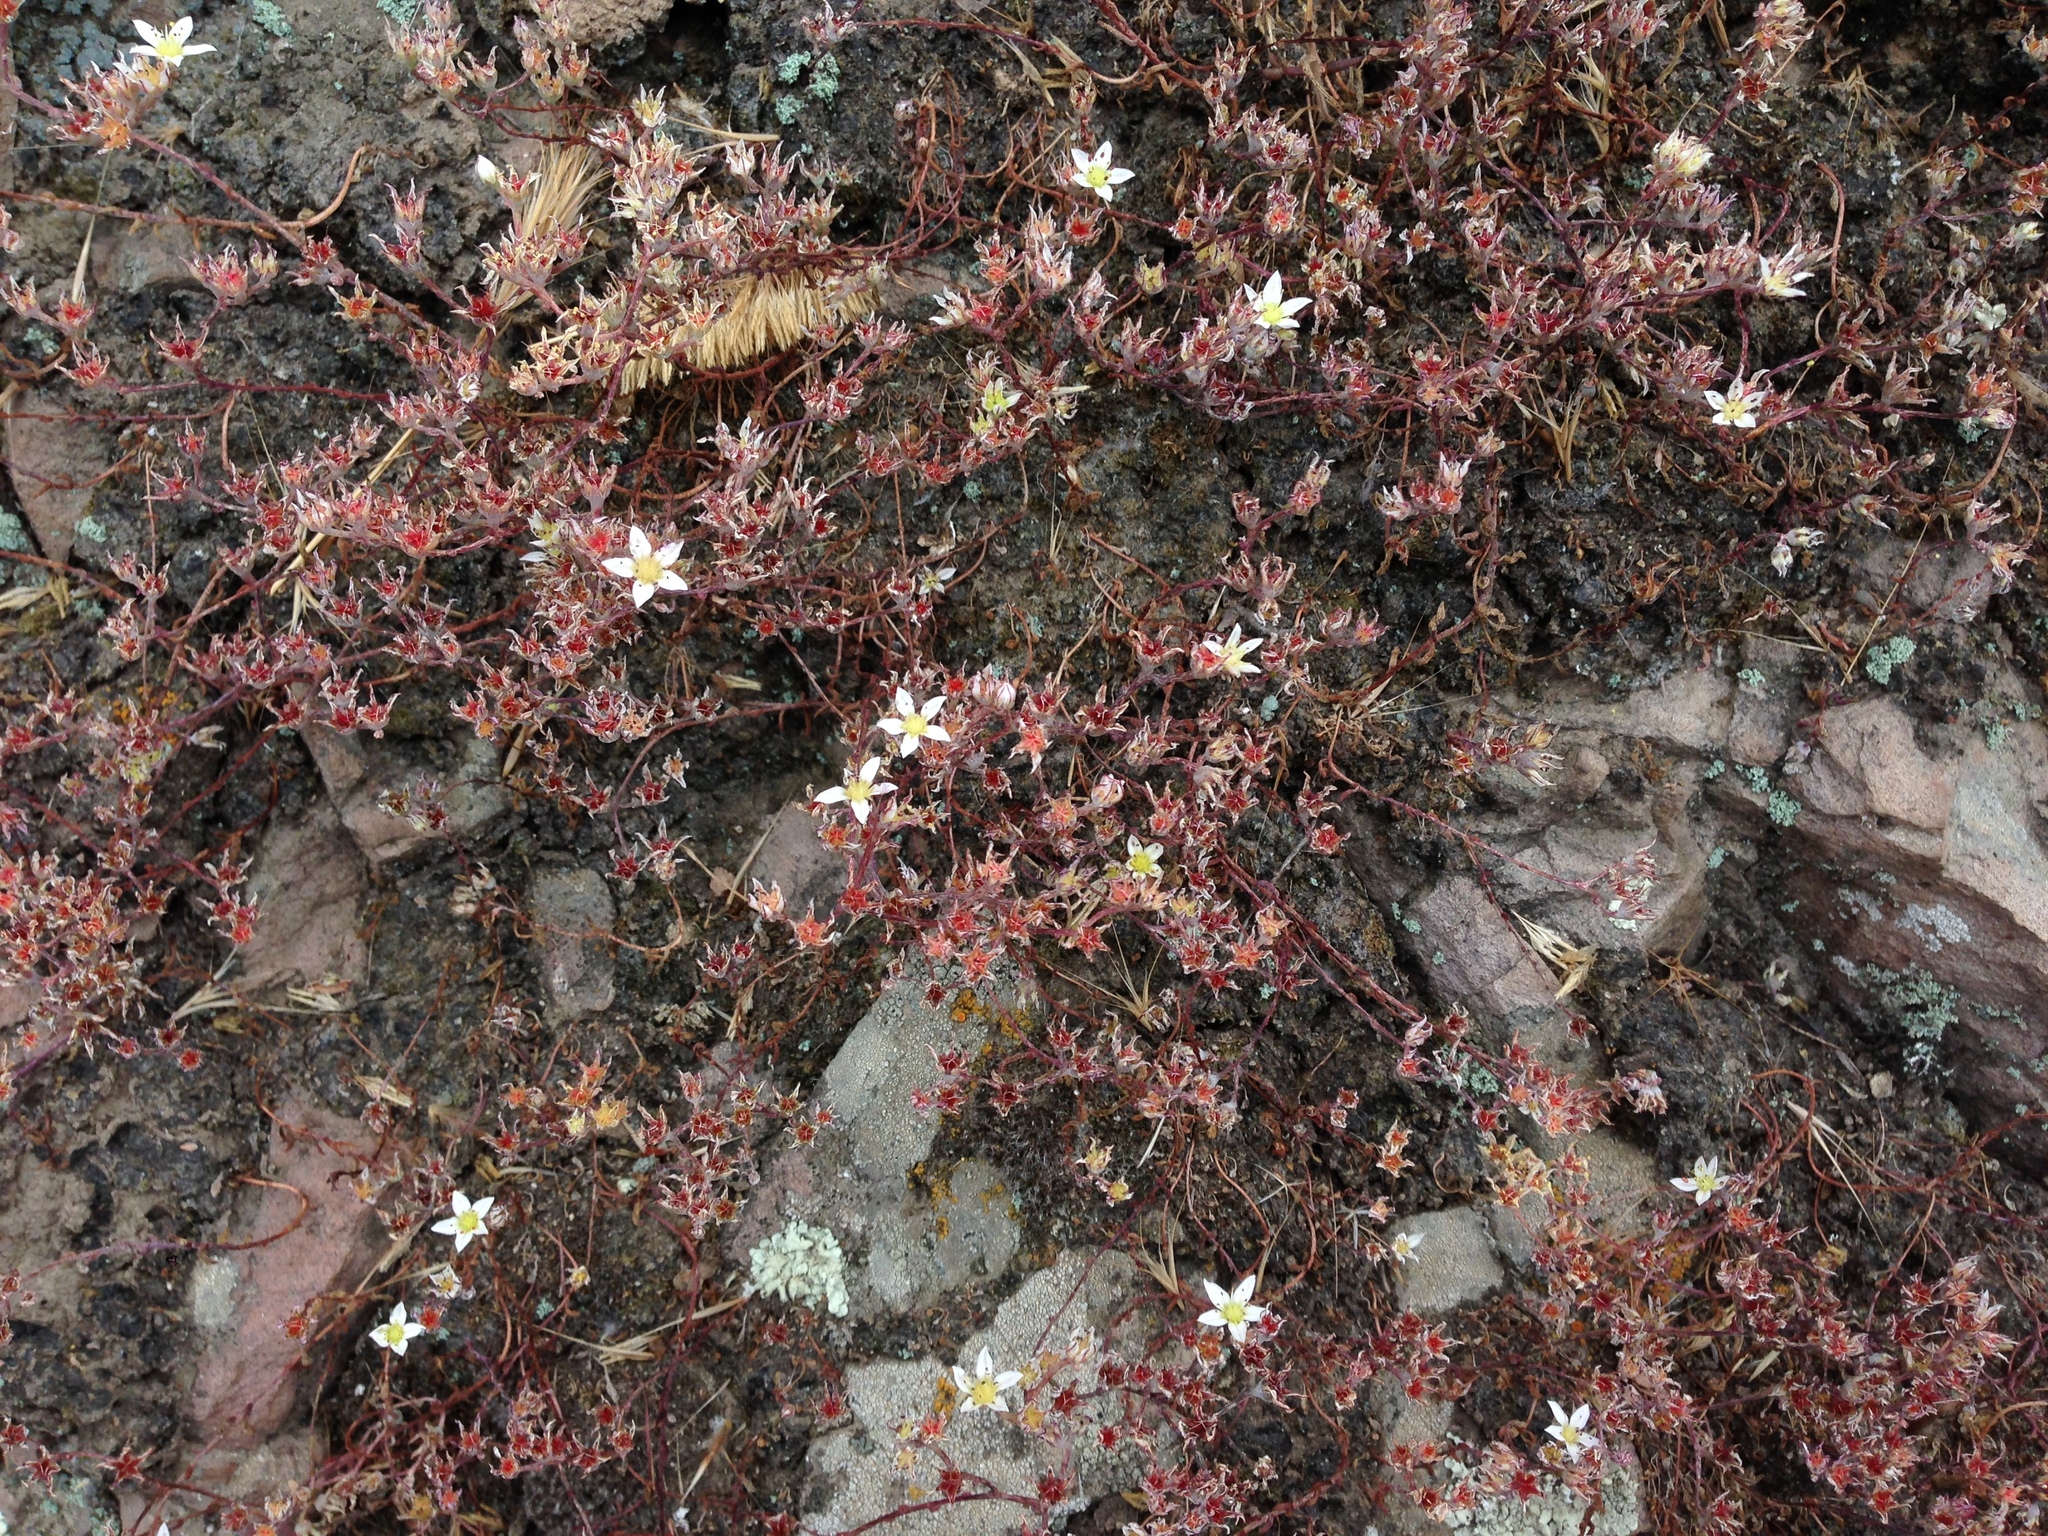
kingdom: Plantae
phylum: Tracheophyta
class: Magnoliopsida
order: Saxifragales
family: Crassulaceae
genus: Dudleya
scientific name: Dudleya blochmaniae
